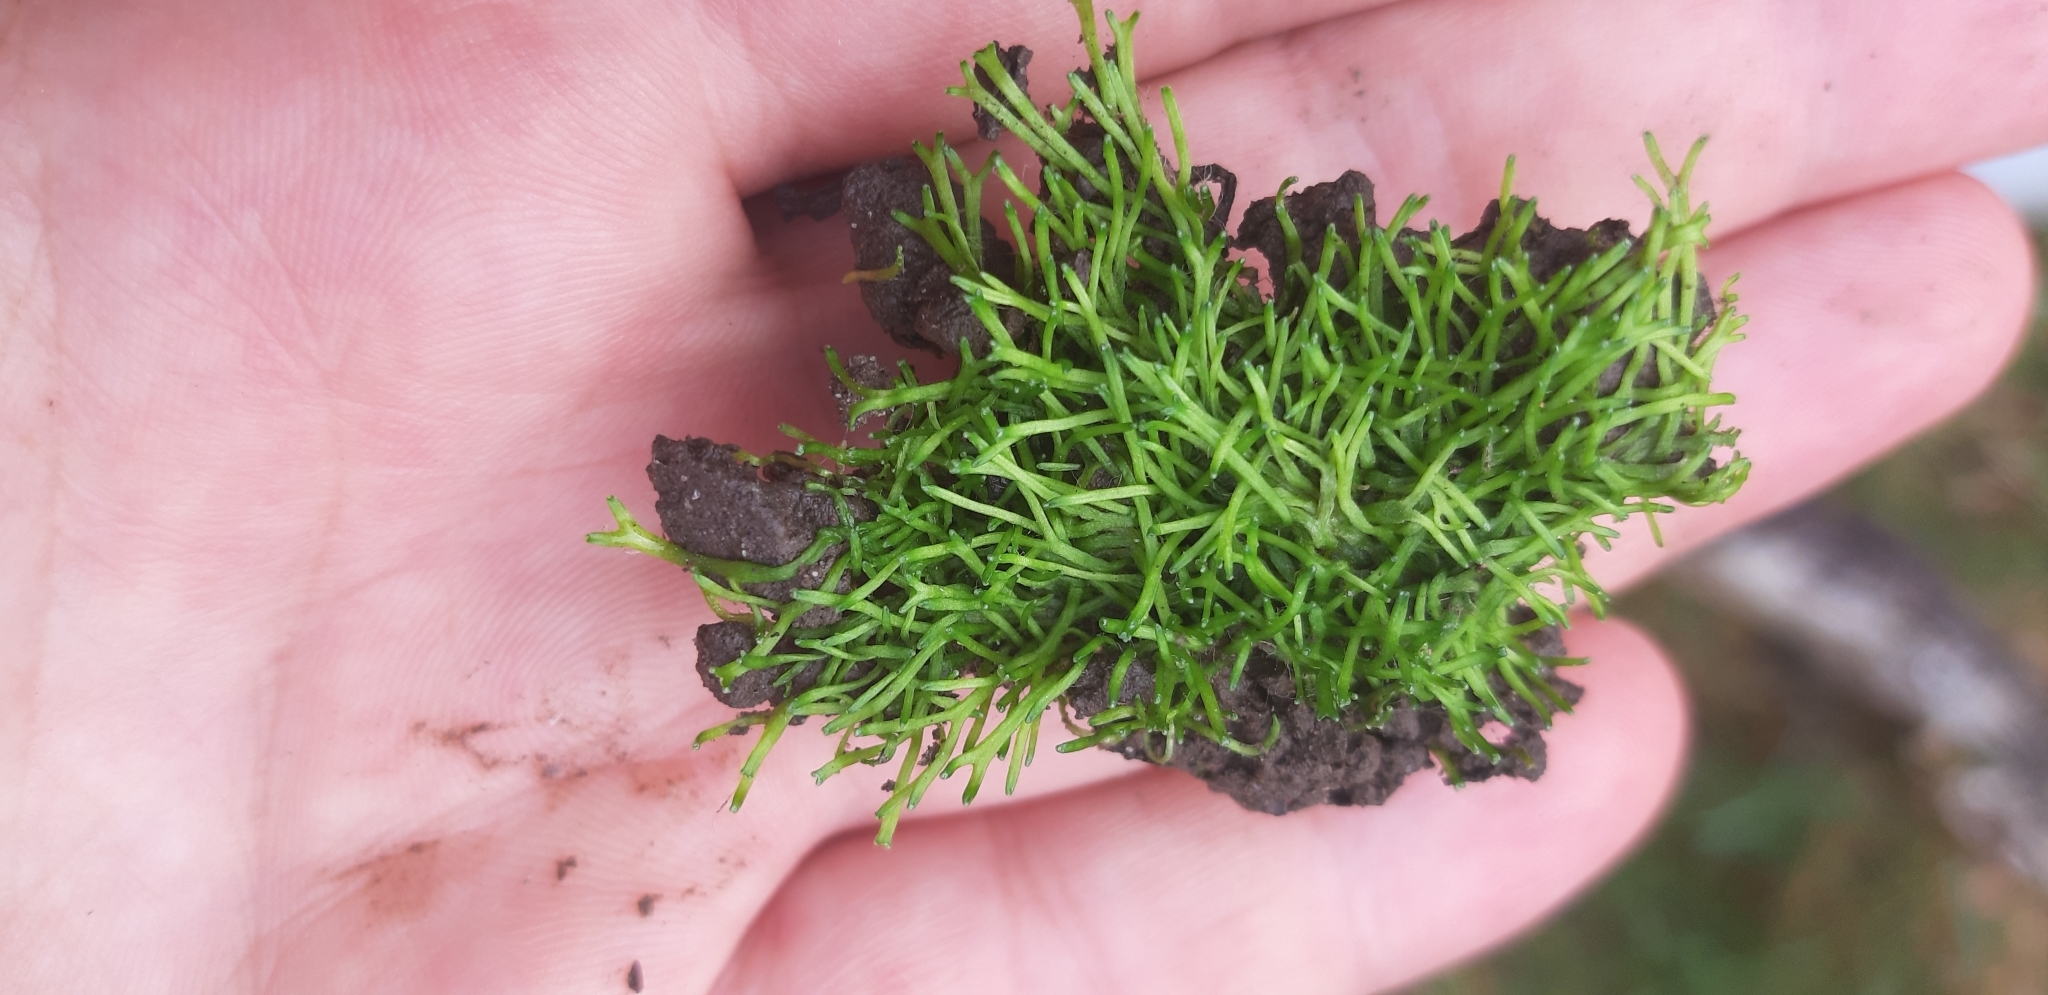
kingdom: Plantae
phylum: Marchantiophyta
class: Marchantiopsida
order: Marchantiales
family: Ricciaceae
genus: Riccia
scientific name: Riccia canaliculata
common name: Channelled crystalwort
